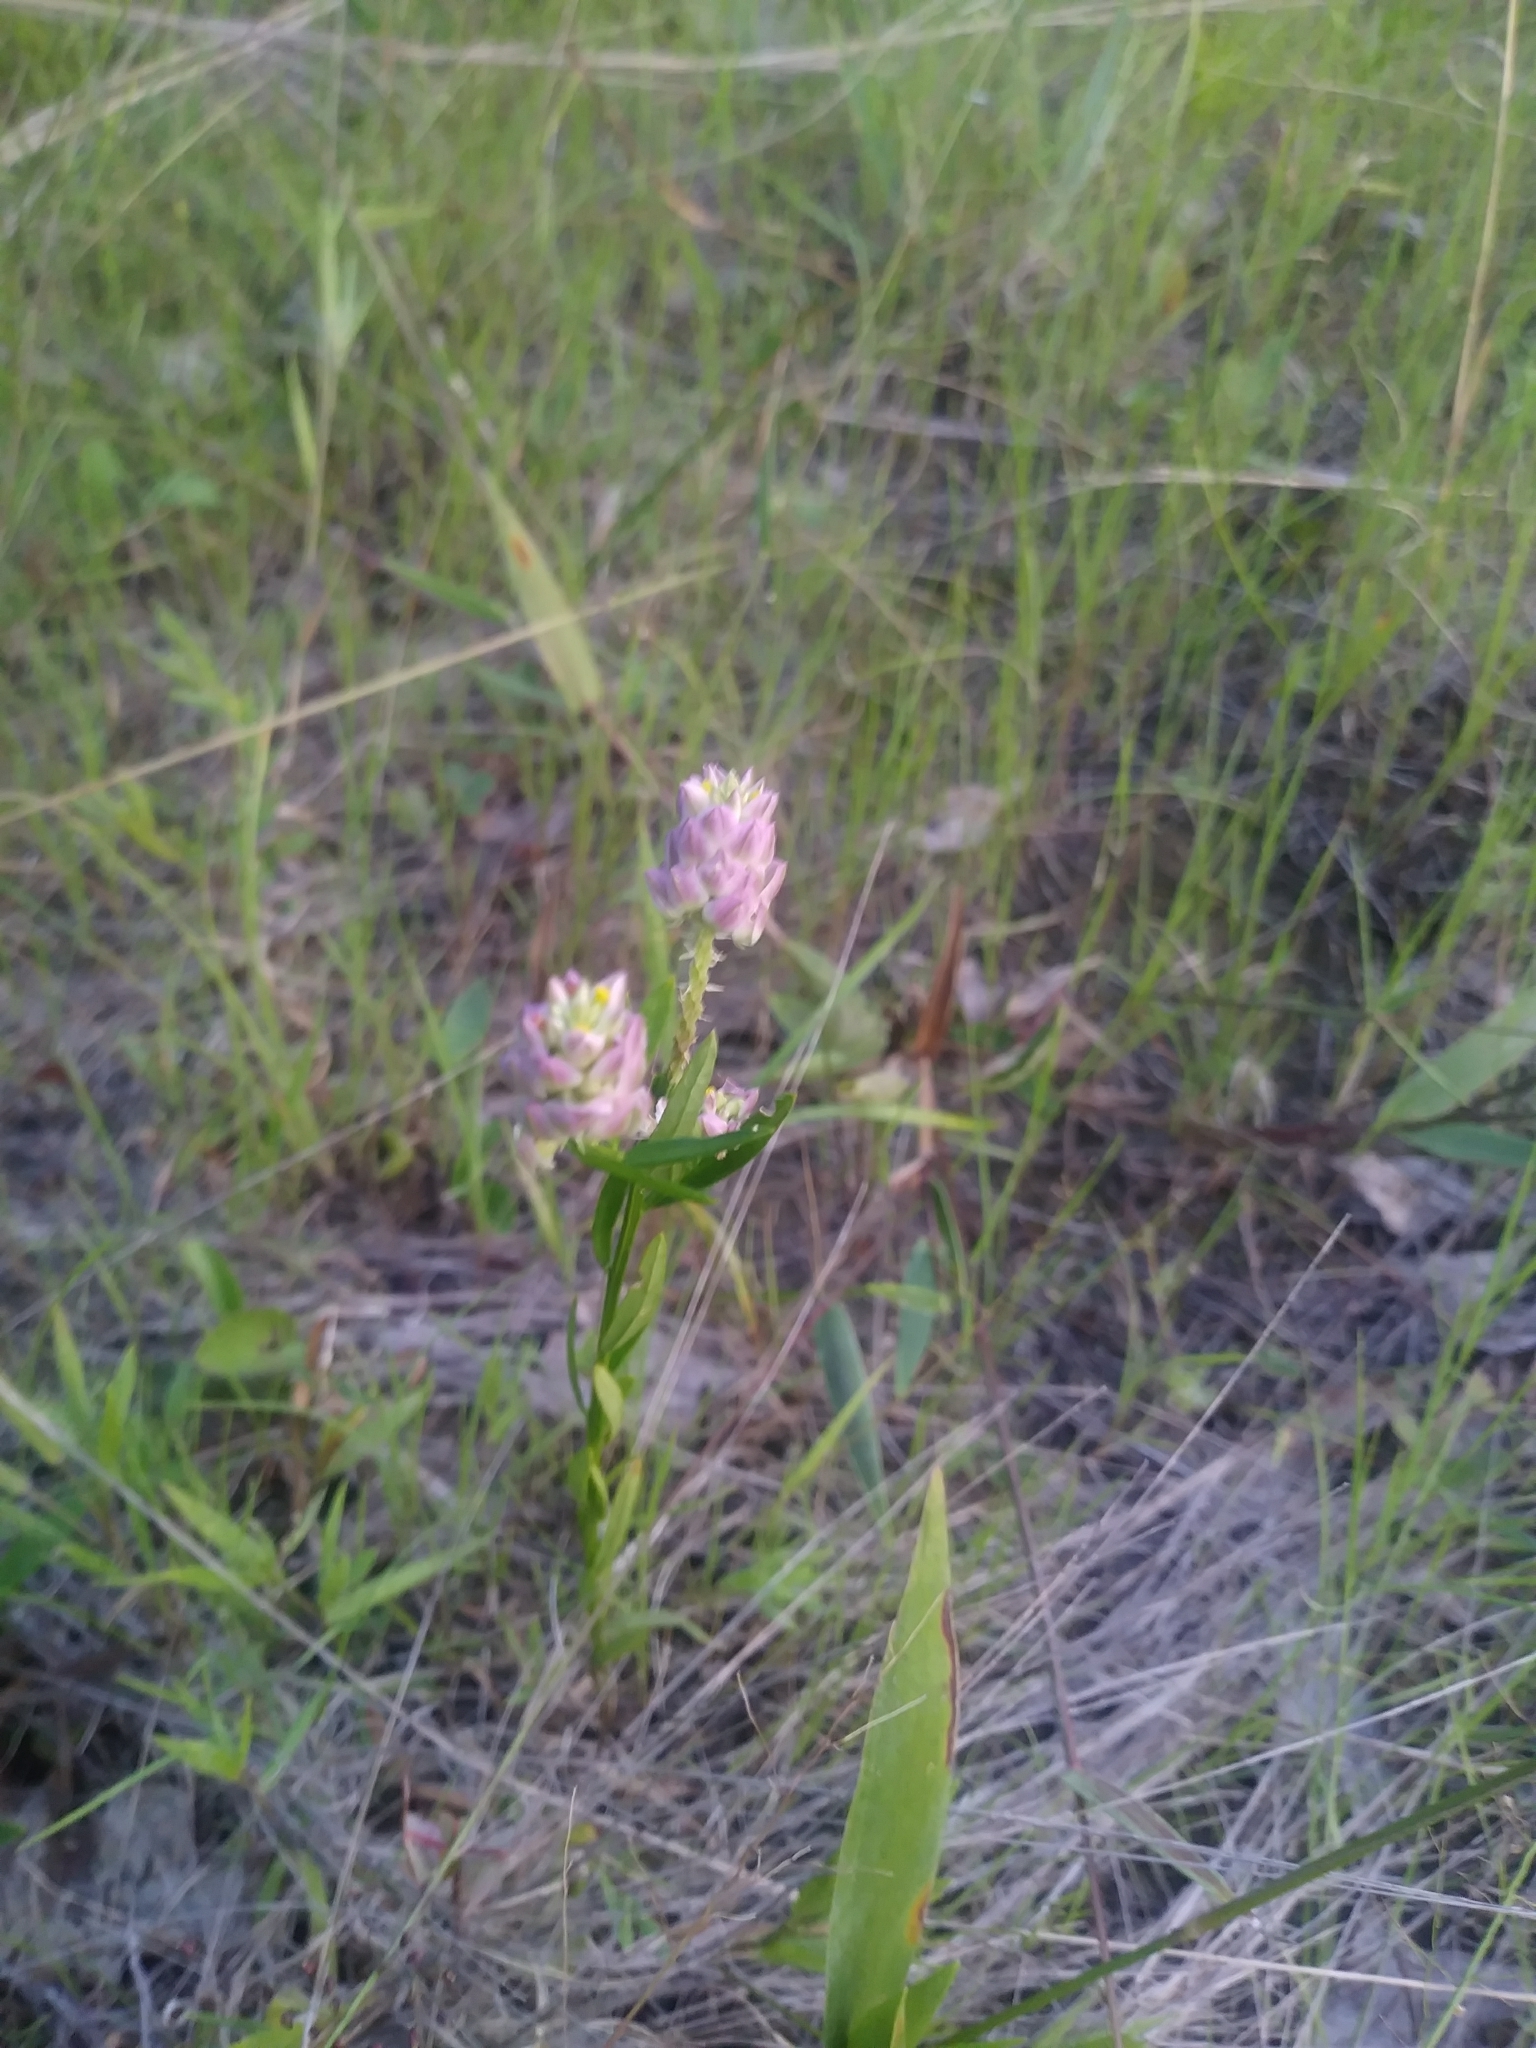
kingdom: Plantae
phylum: Tracheophyta
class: Magnoliopsida
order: Fabales
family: Polygalaceae
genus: Polygala
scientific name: Polygala curtissii
